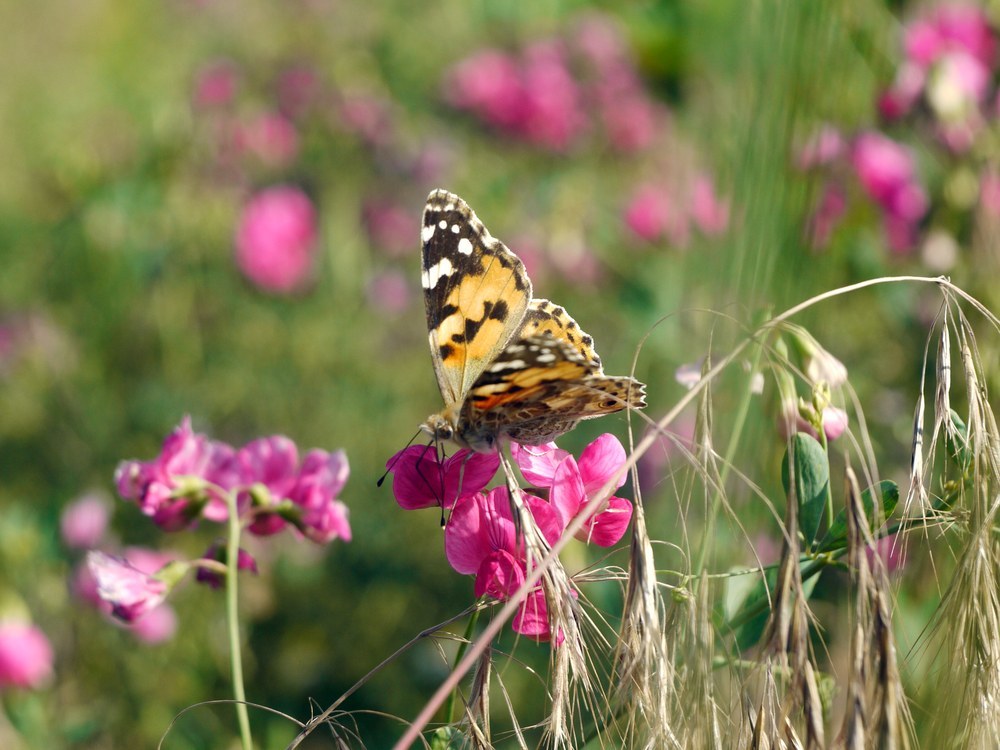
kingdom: Animalia
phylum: Arthropoda
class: Insecta
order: Lepidoptera
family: Nymphalidae
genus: Vanessa
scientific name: Vanessa cardui
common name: Painted lady
